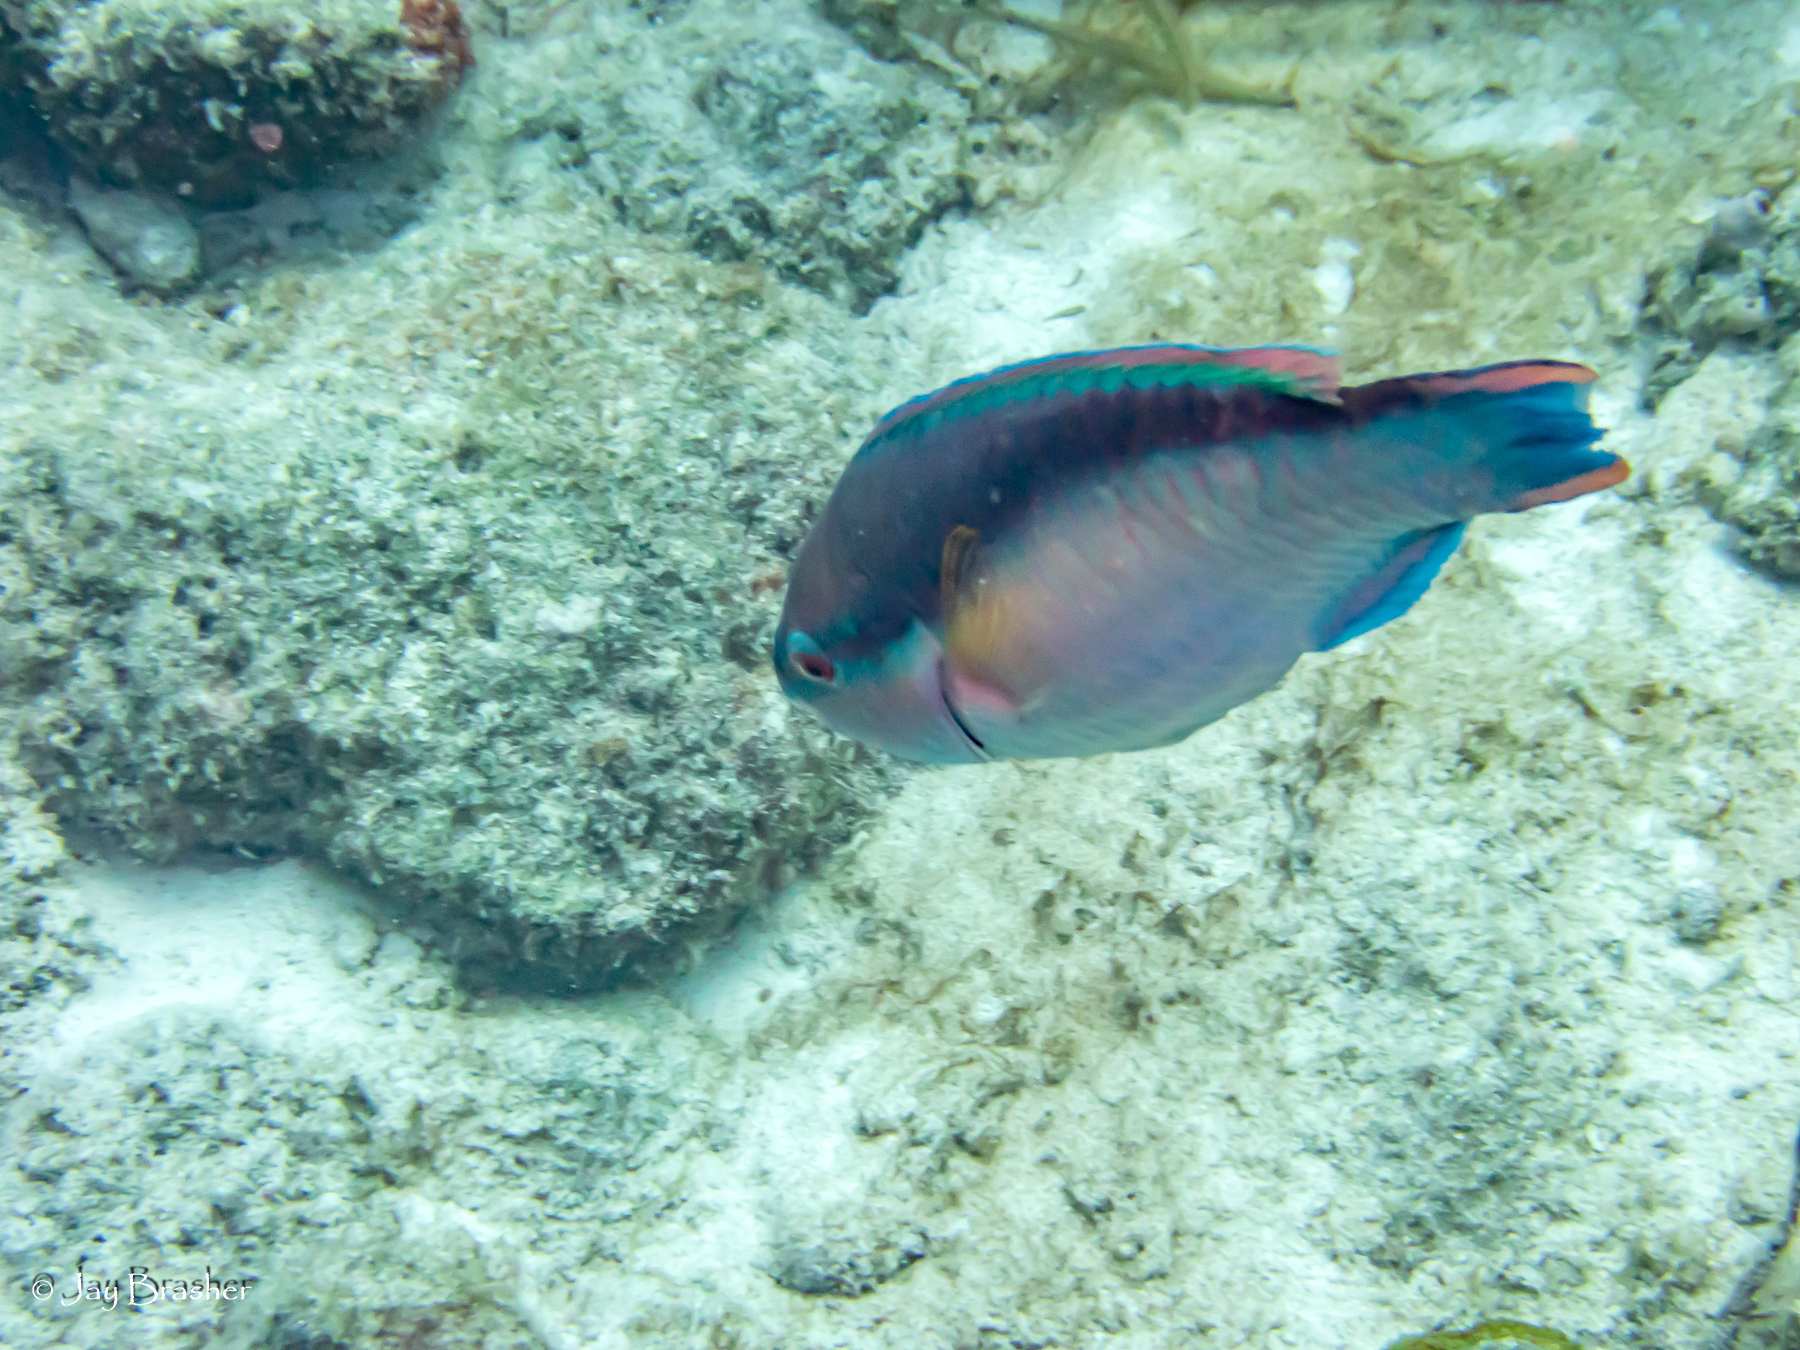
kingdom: Animalia
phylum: Chordata
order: Perciformes
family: Scaridae
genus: Scarus
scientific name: Scarus taeniopterus
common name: Princess parrotfish
